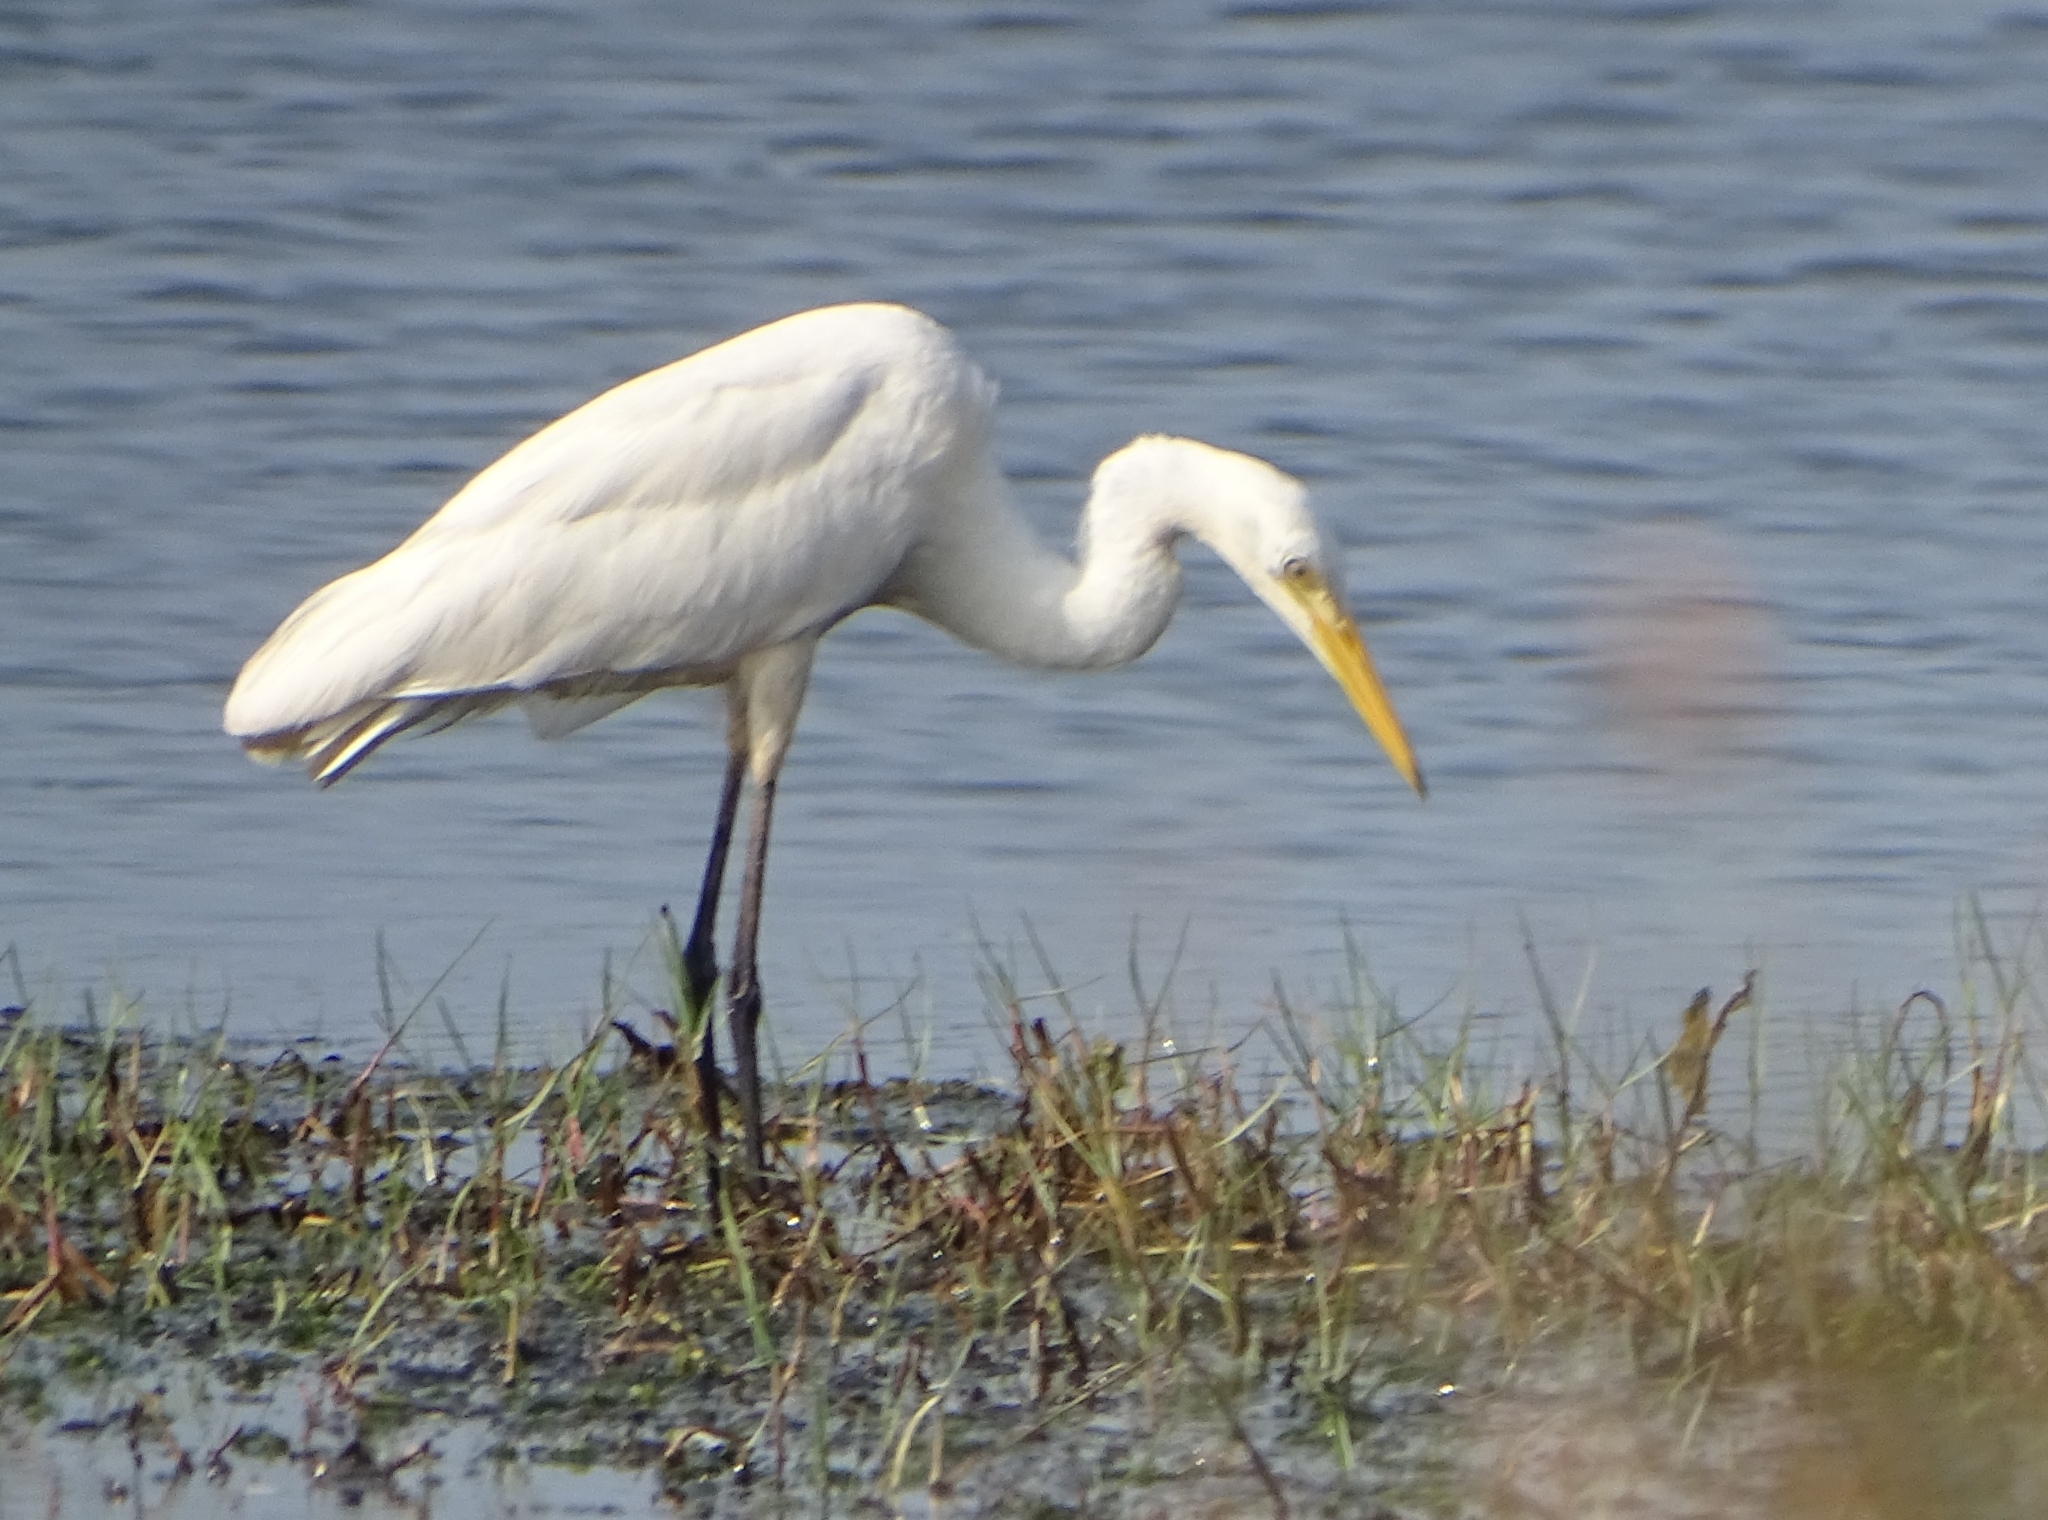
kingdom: Animalia
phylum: Chordata
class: Aves
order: Pelecaniformes
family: Ardeidae
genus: Ardea
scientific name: Ardea alba
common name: Great egret
